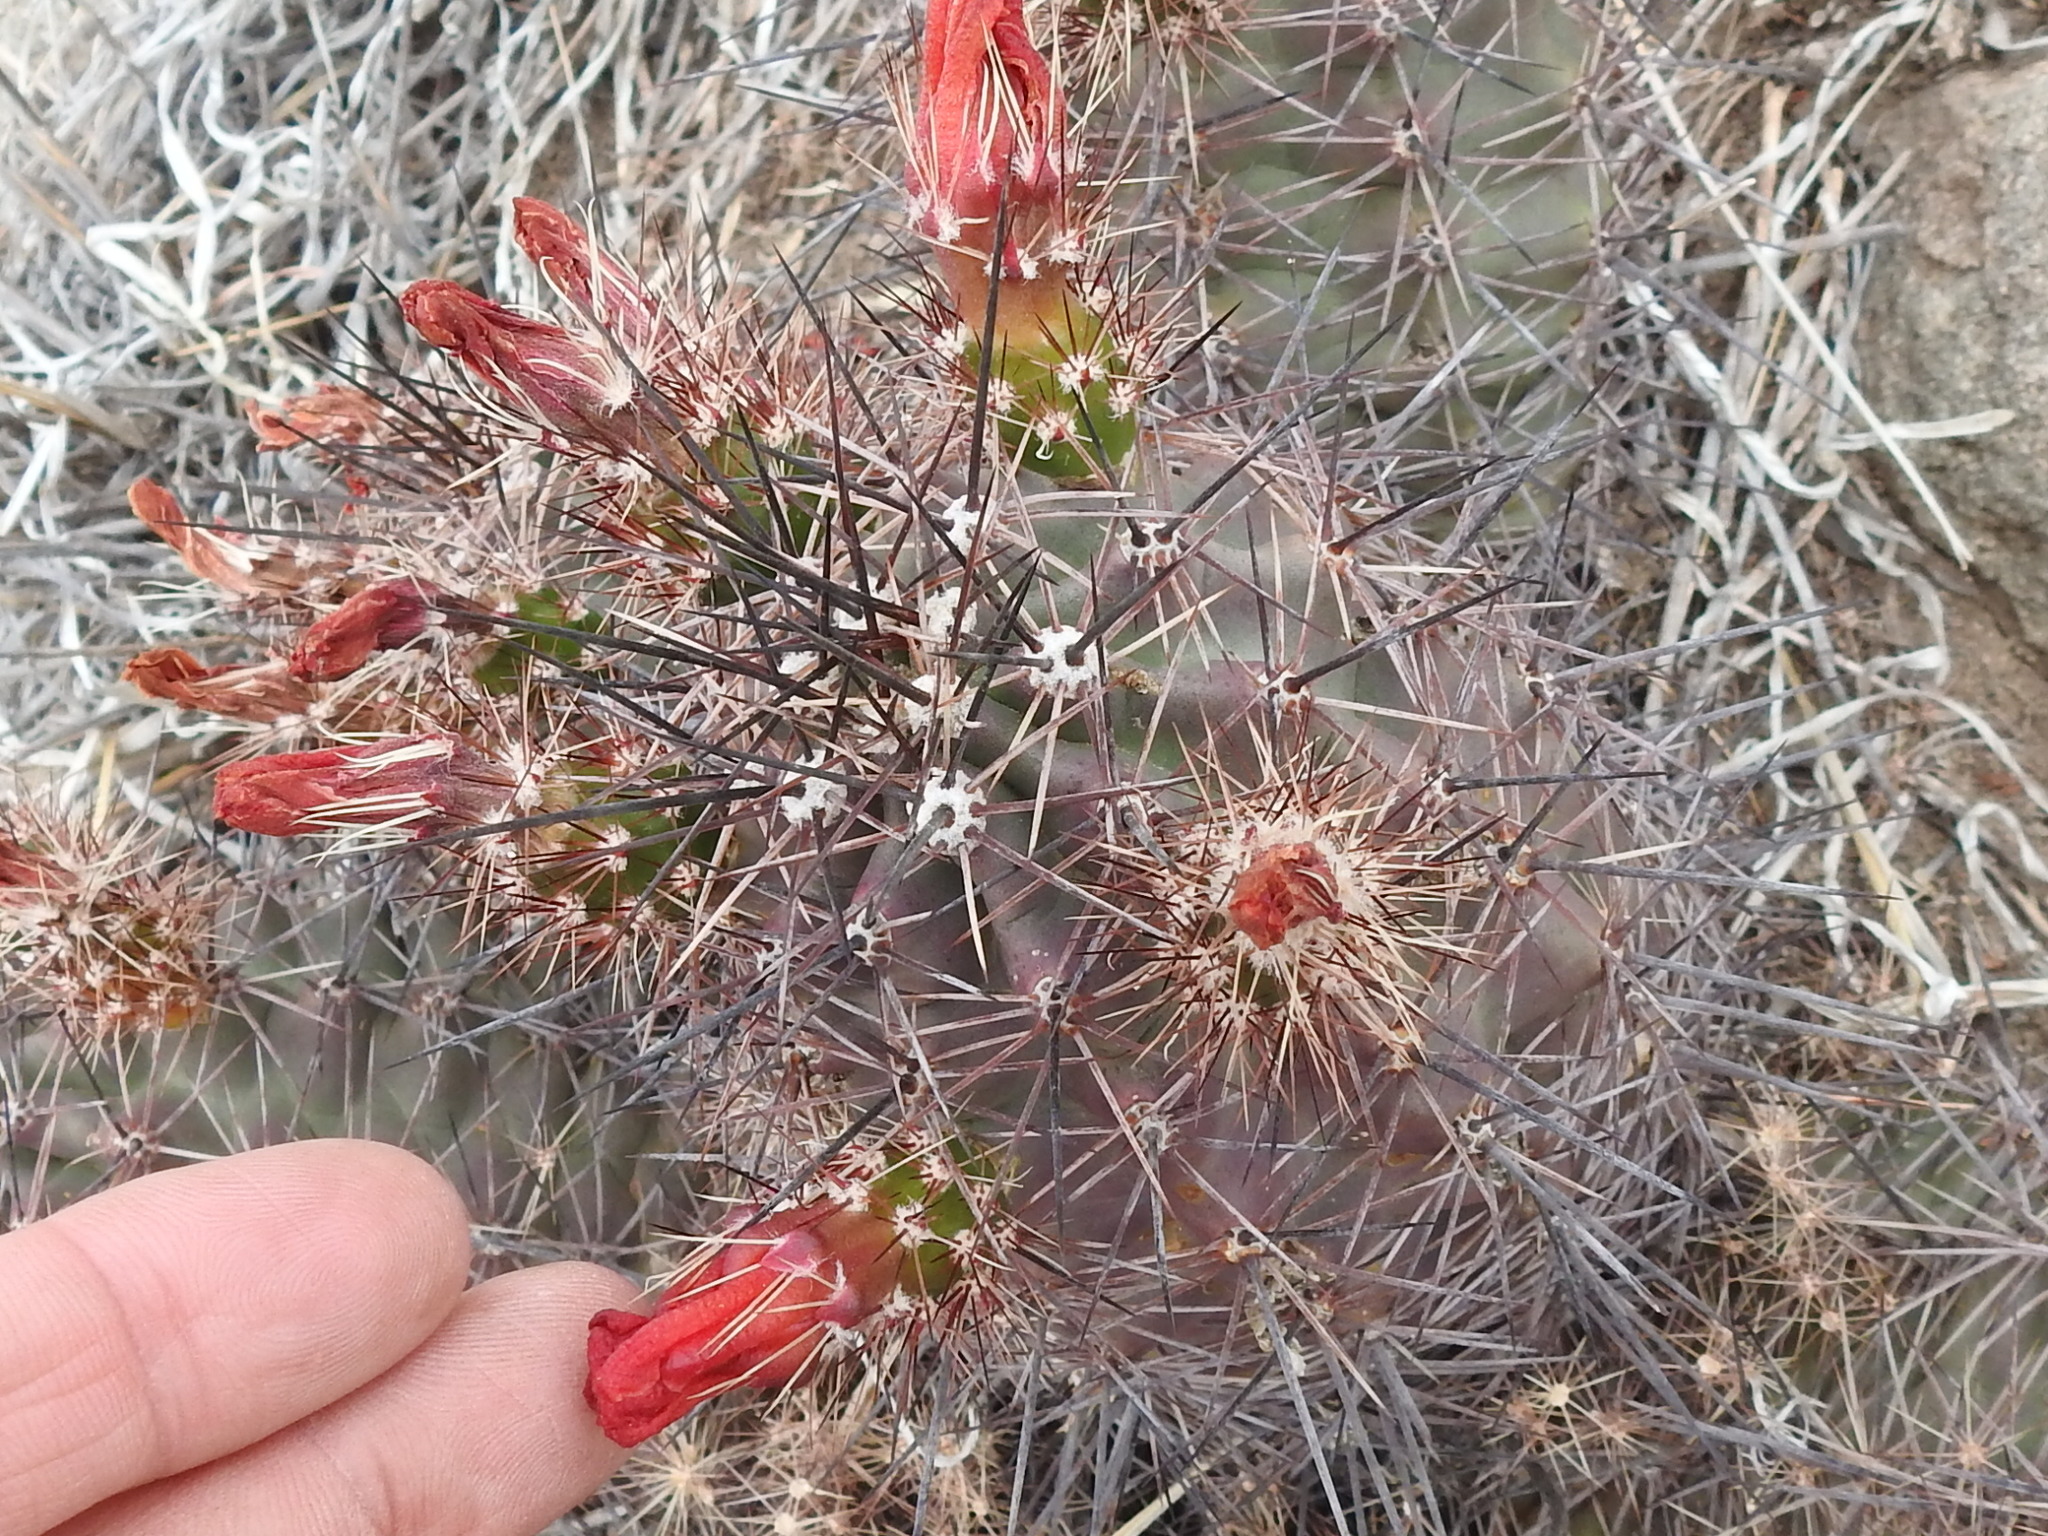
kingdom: Plantae
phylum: Tracheophyta
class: Magnoliopsida
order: Caryophyllales
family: Cactaceae
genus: Echinocereus
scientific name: Echinocereus coccineus
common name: Scarlet hedgehog cactus
